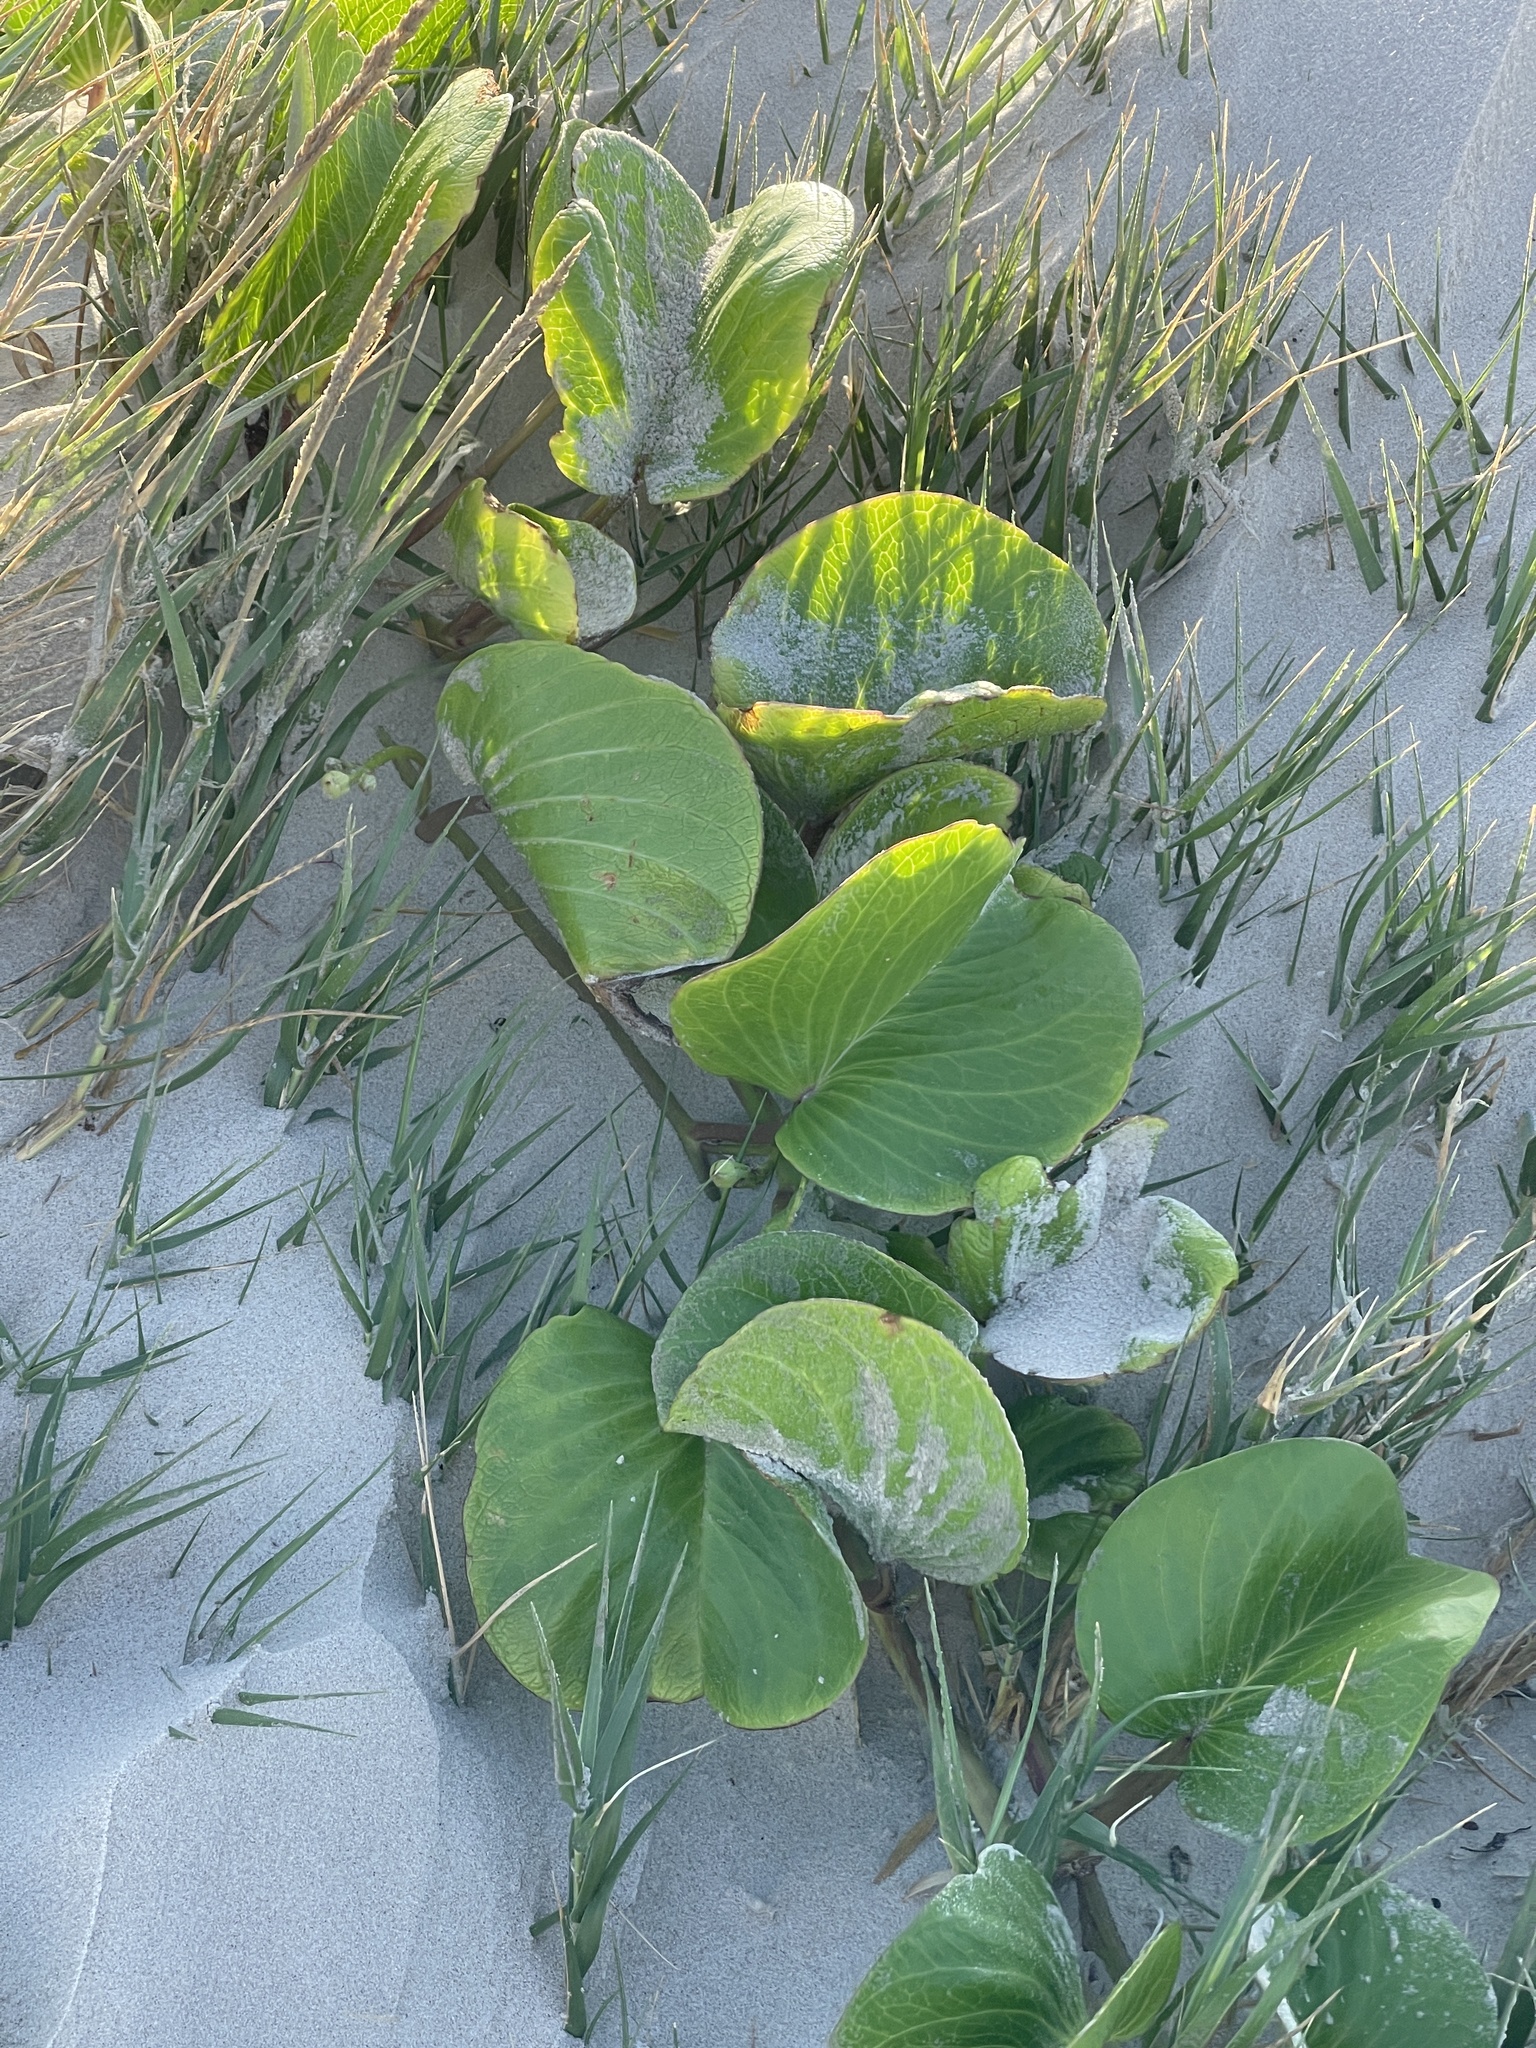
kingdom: Plantae
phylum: Tracheophyta
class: Magnoliopsida
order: Solanales
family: Convolvulaceae
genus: Ipomoea
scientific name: Ipomoea pes-caprae
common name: Beach morning glory
